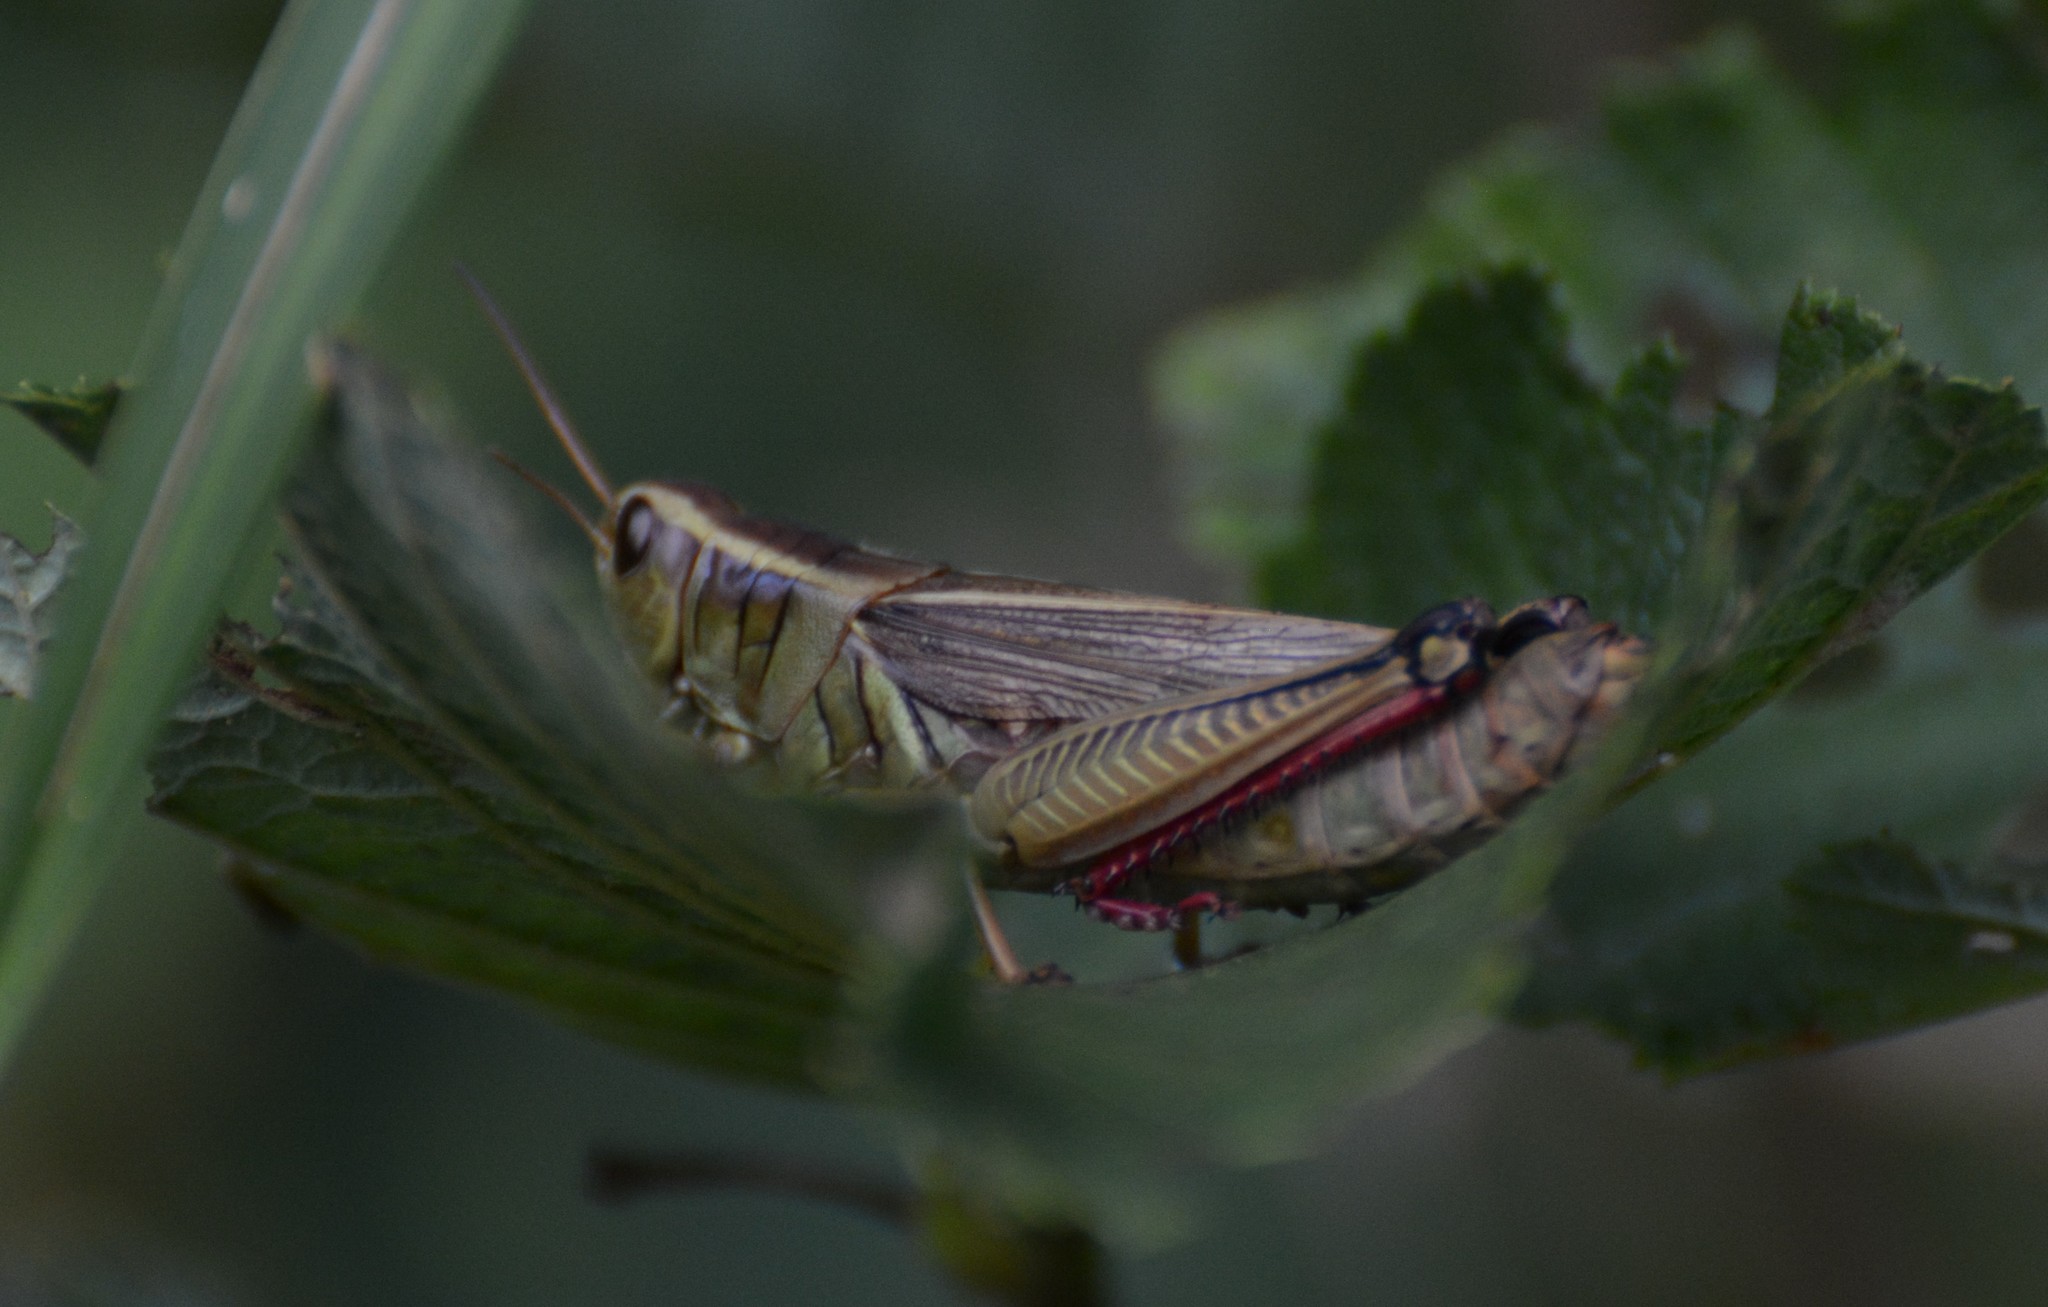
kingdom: Animalia
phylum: Arthropoda
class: Insecta
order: Orthoptera
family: Acrididae
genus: Melanoplus
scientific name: Melanoplus bivittatus
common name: Two-striped grasshopper
